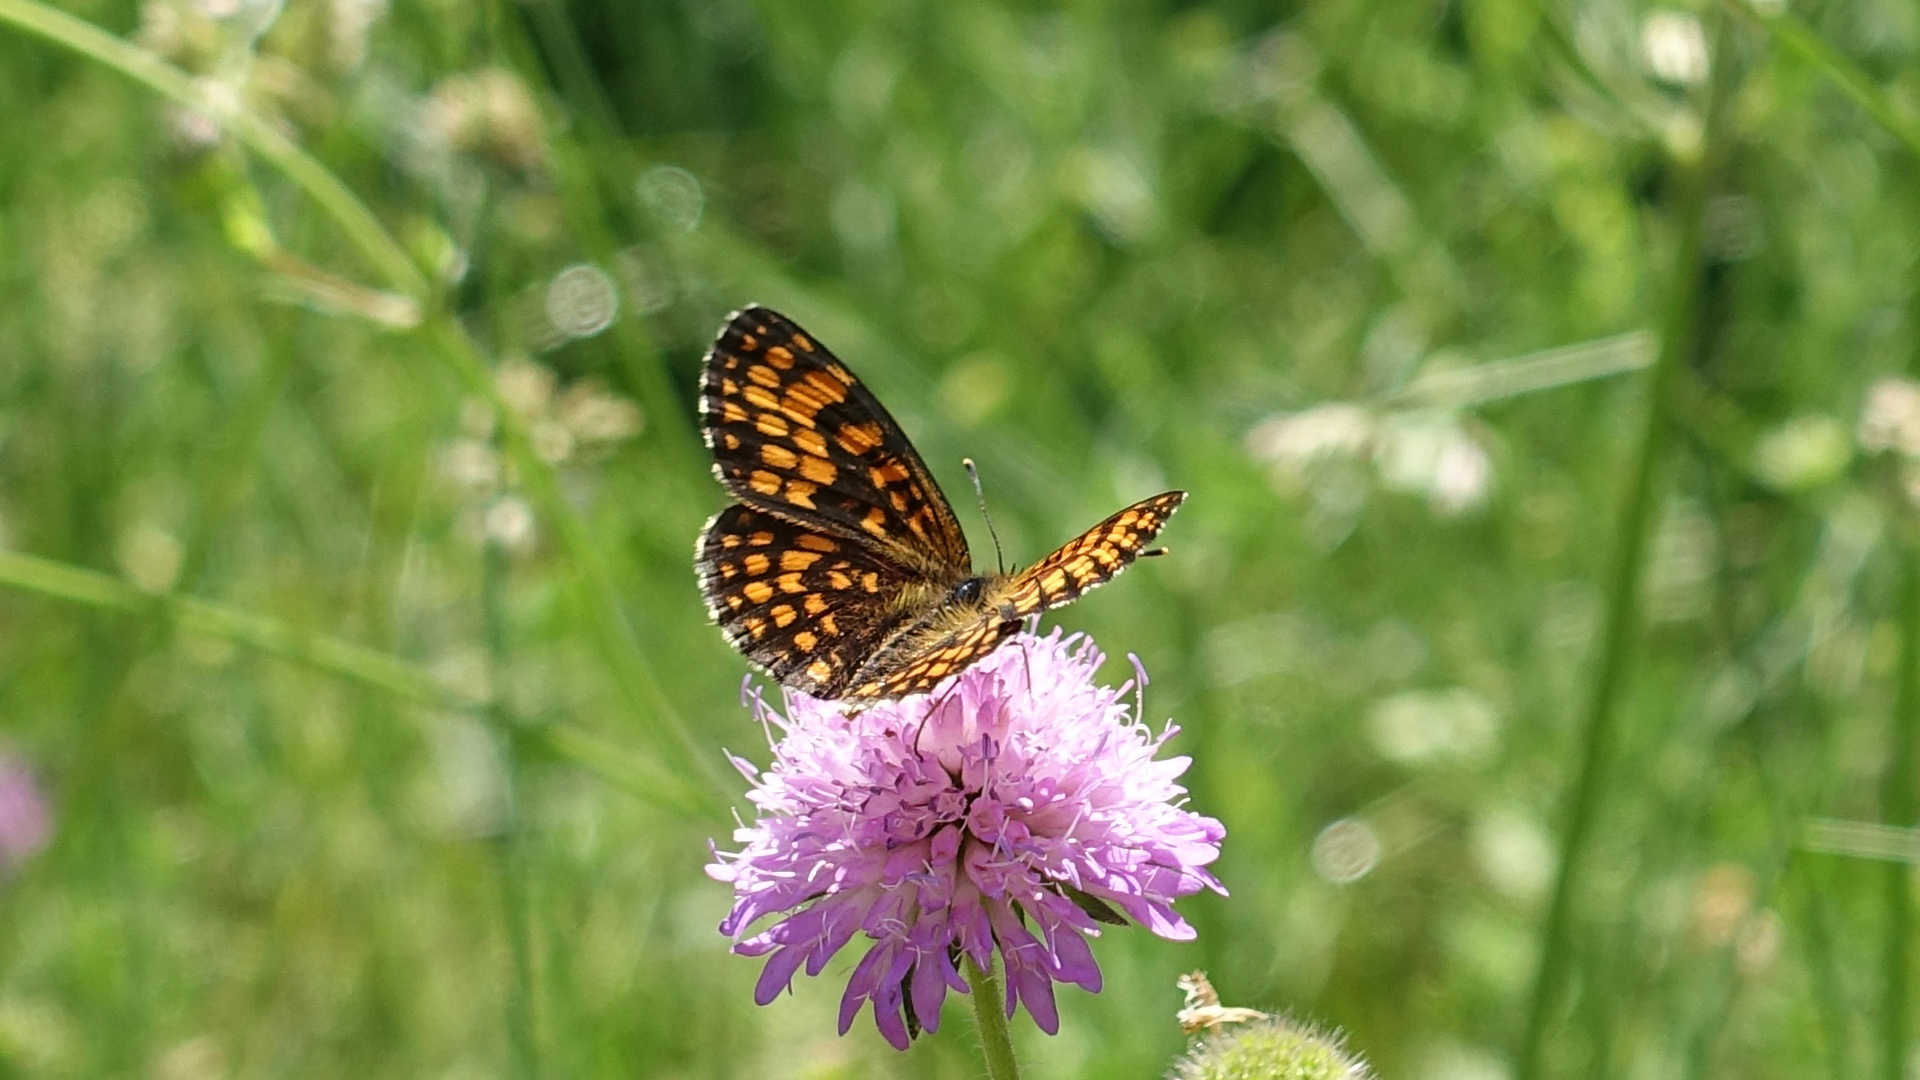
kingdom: Animalia
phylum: Arthropoda
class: Insecta
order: Lepidoptera
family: Nymphalidae
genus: Mellicta
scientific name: Mellicta athalia
